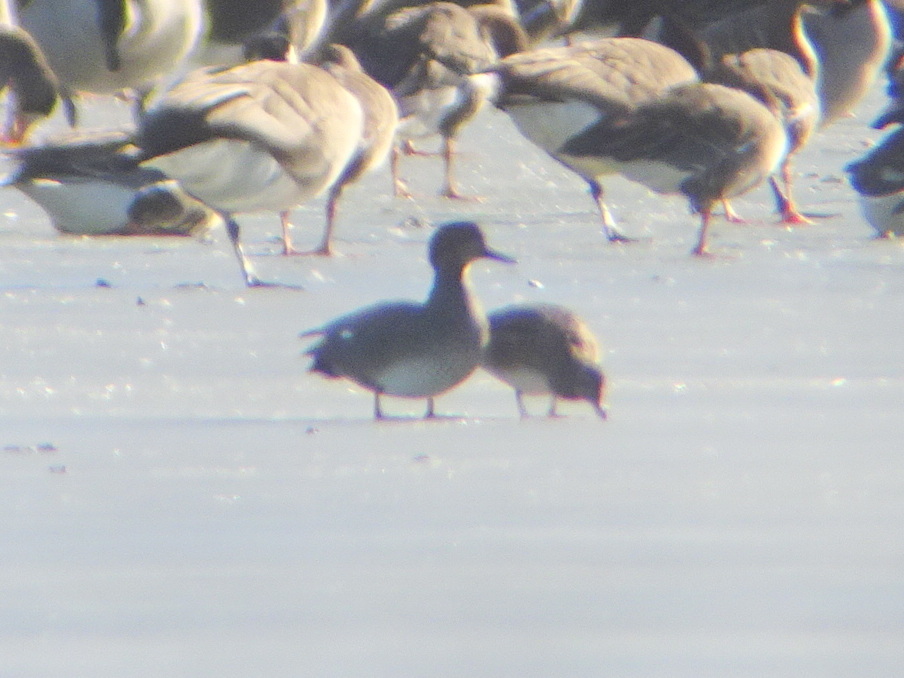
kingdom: Animalia
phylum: Chordata
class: Aves
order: Anseriformes
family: Anatidae
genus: Mareca
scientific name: Mareca strepera
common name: Gadwall
